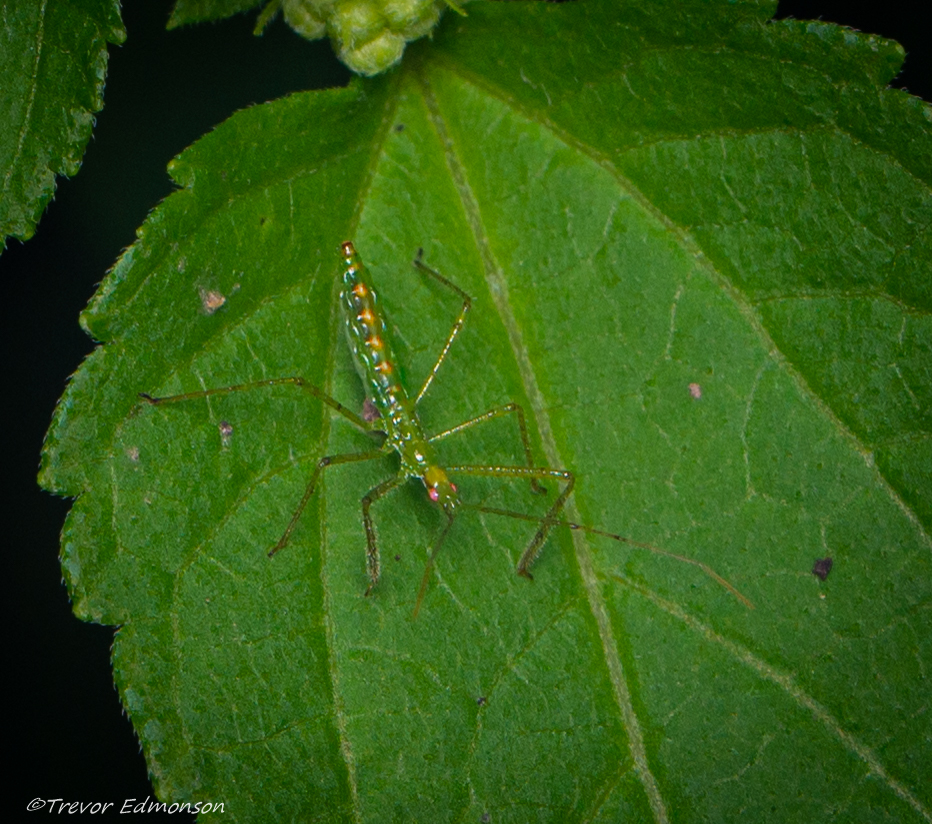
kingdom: Animalia
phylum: Arthropoda
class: Insecta
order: Hemiptera
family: Reduviidae
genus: Zelus
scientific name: Zelus luridus
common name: Pale green assassin bug
